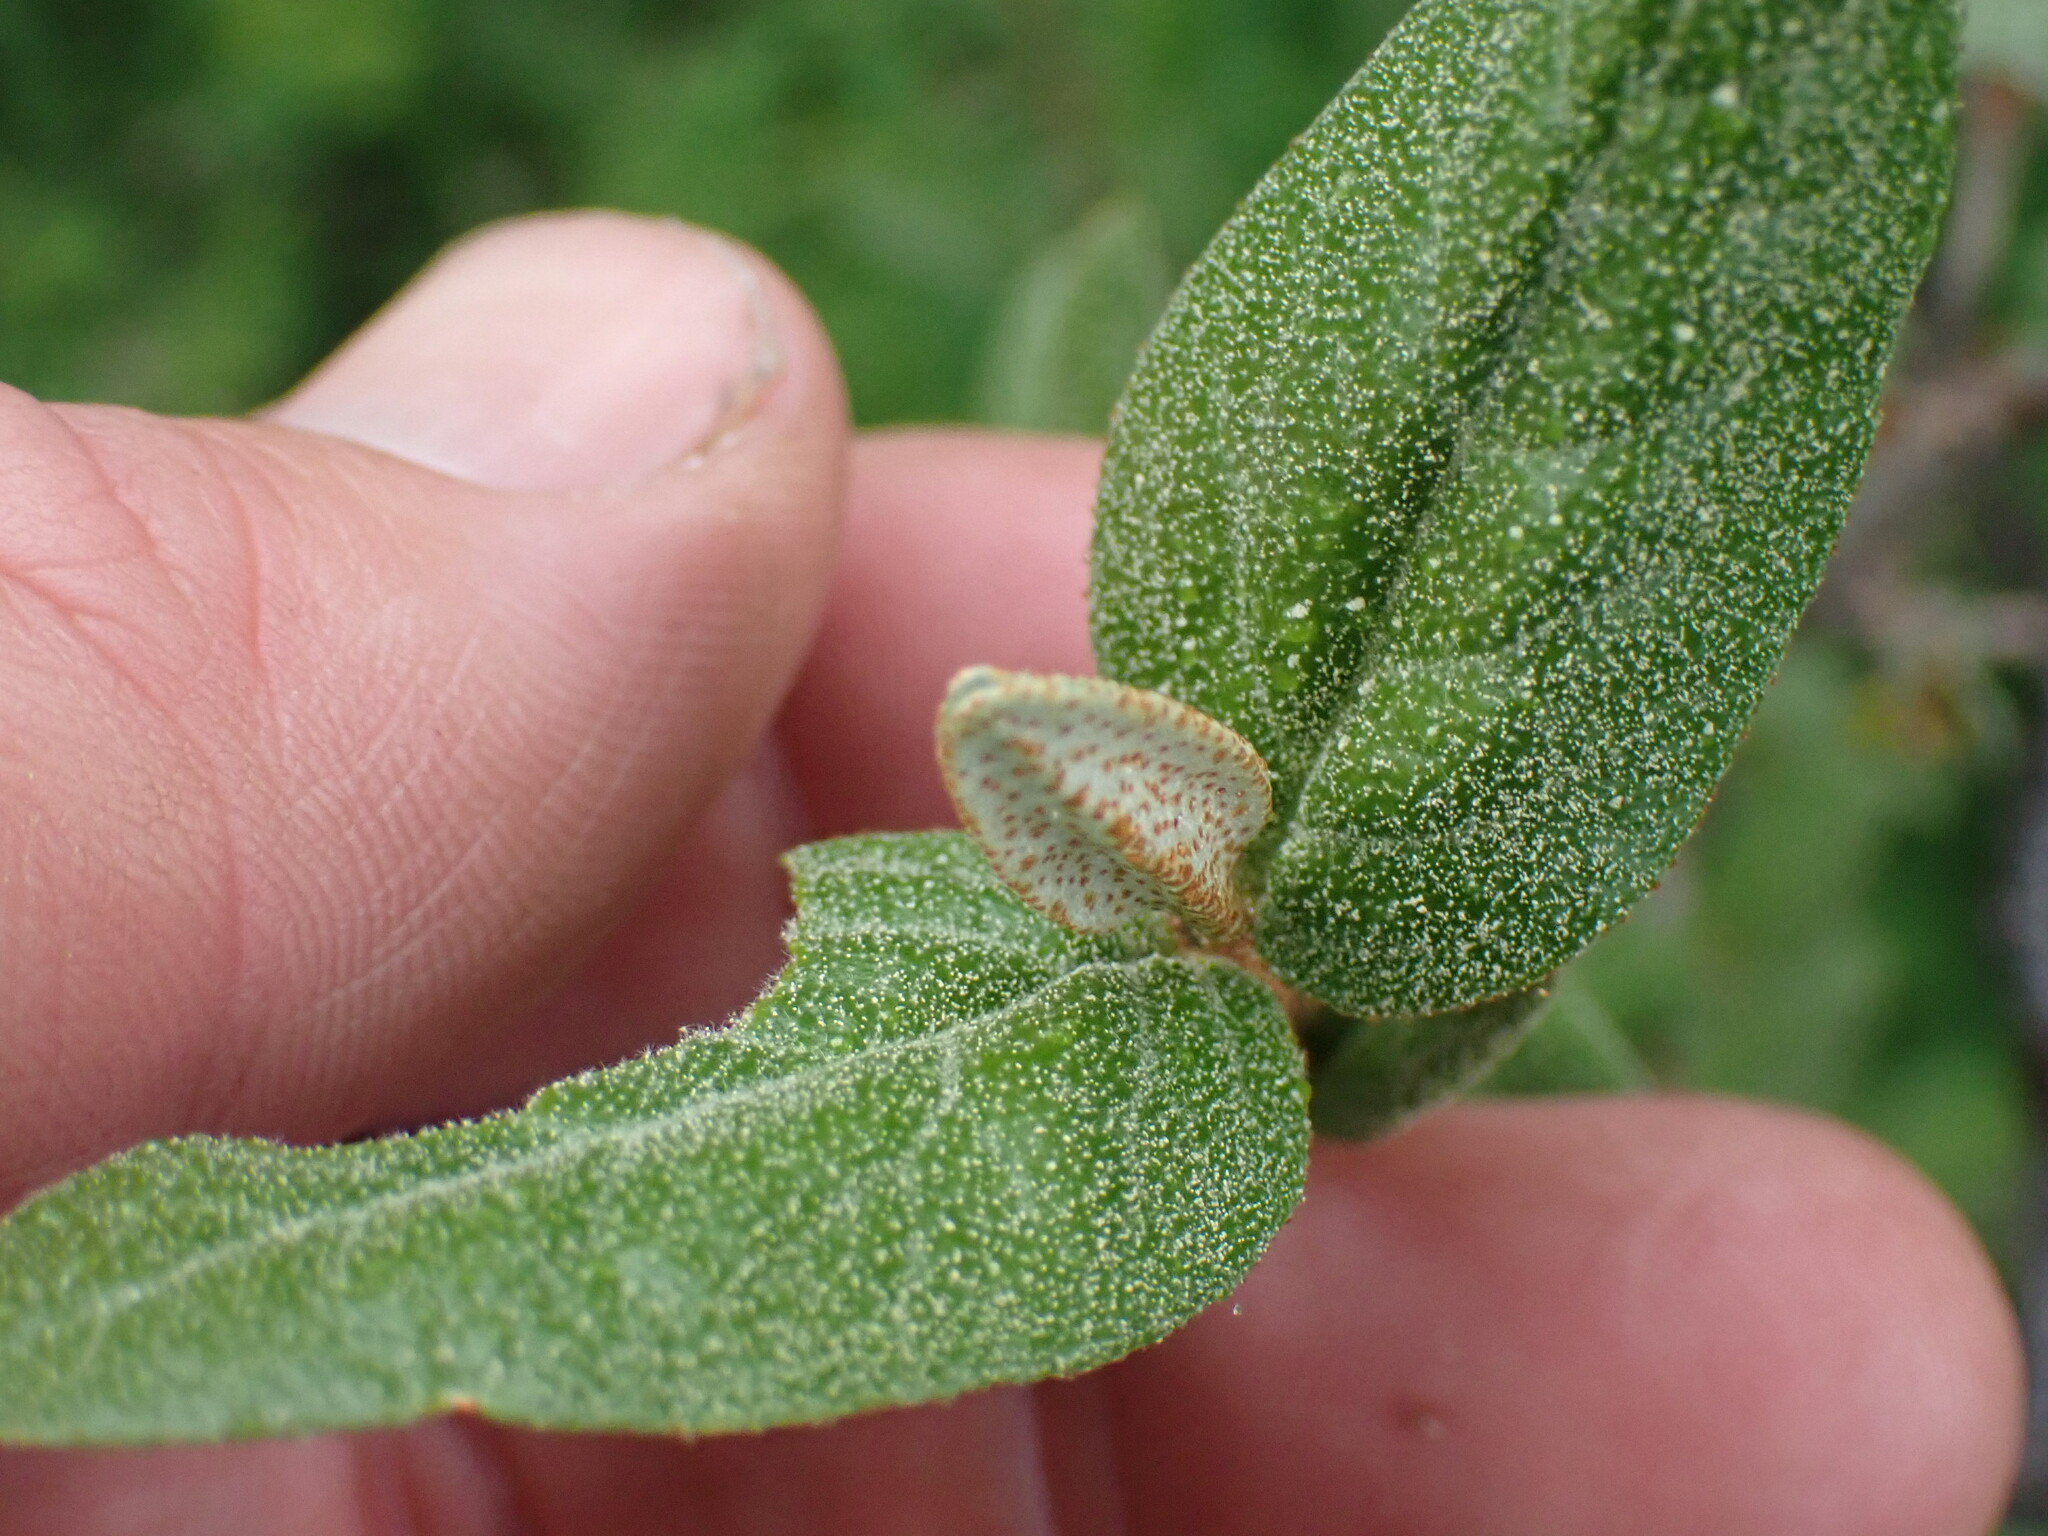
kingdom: Plantae
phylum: Tracheophyta
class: Magnoliopsida
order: Rosales
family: Elaeagnaceae
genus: Shepherdia
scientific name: Shepherdia canadensis
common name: Soapberry
